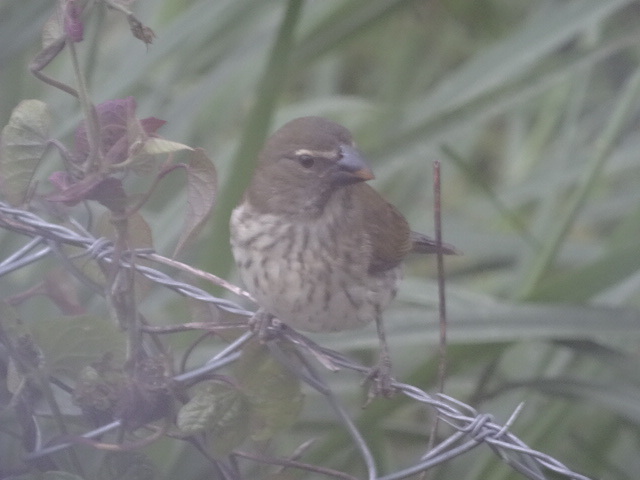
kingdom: Animalia
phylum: Chordata
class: Aves
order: Passeriformes
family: Thraupidae
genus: Saltator
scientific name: Saltator striatipectus
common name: Streaked saltator
